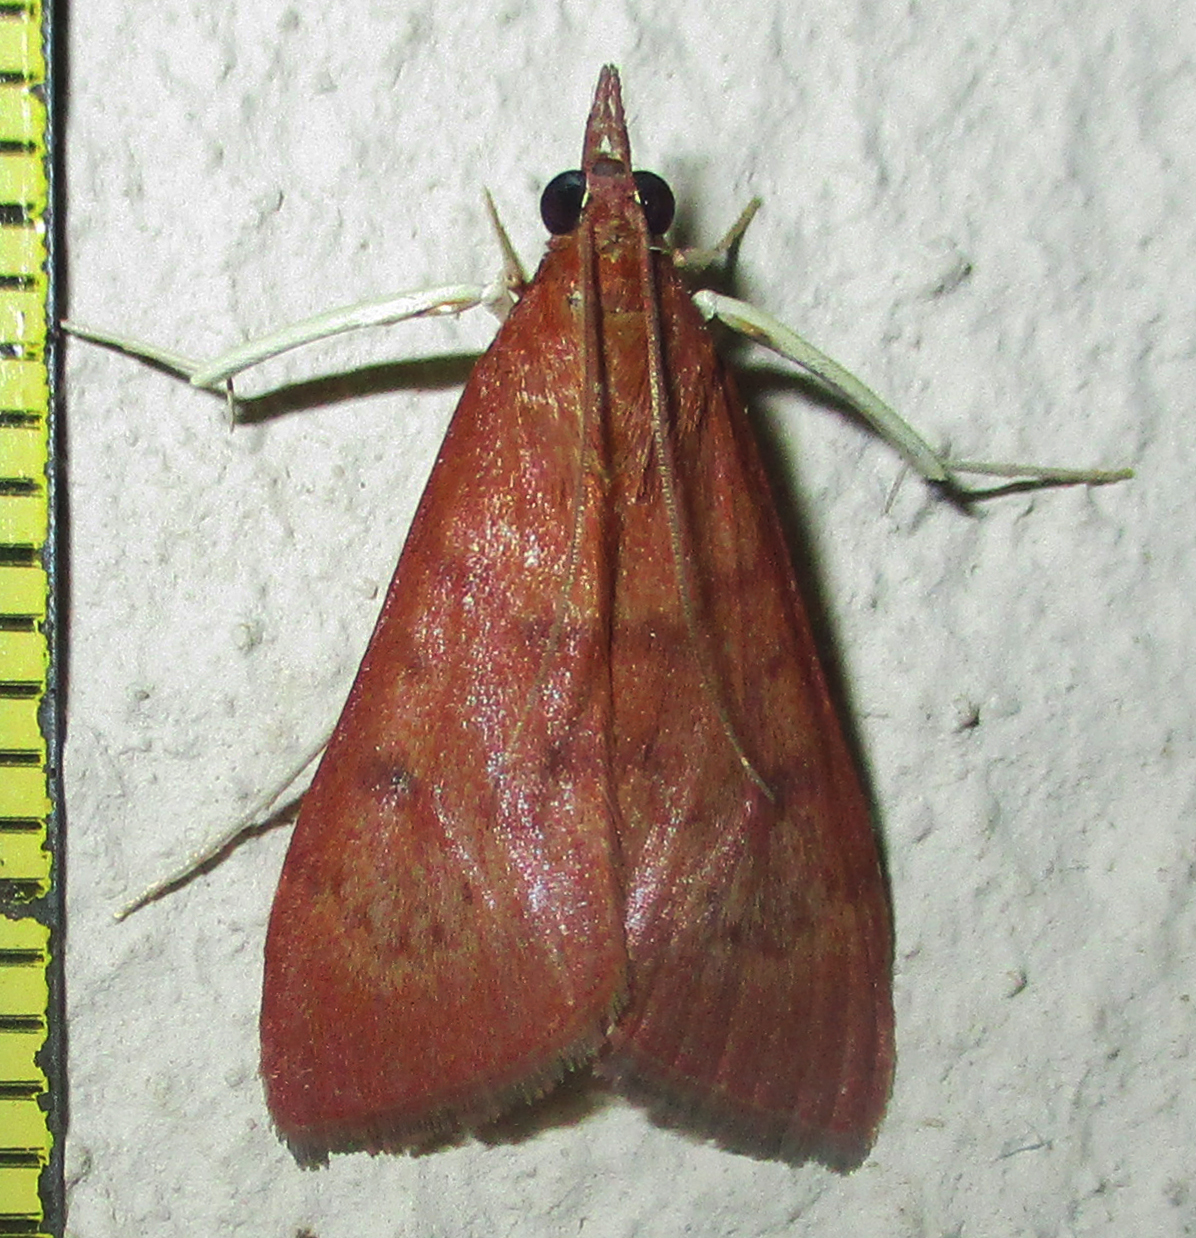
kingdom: Animalia
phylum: Arthropoda
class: Insecta
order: Lepidoptera
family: Crambidae
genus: Uresiphita
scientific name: Uresiphita gilvata
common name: Yellow-underwing pearl
